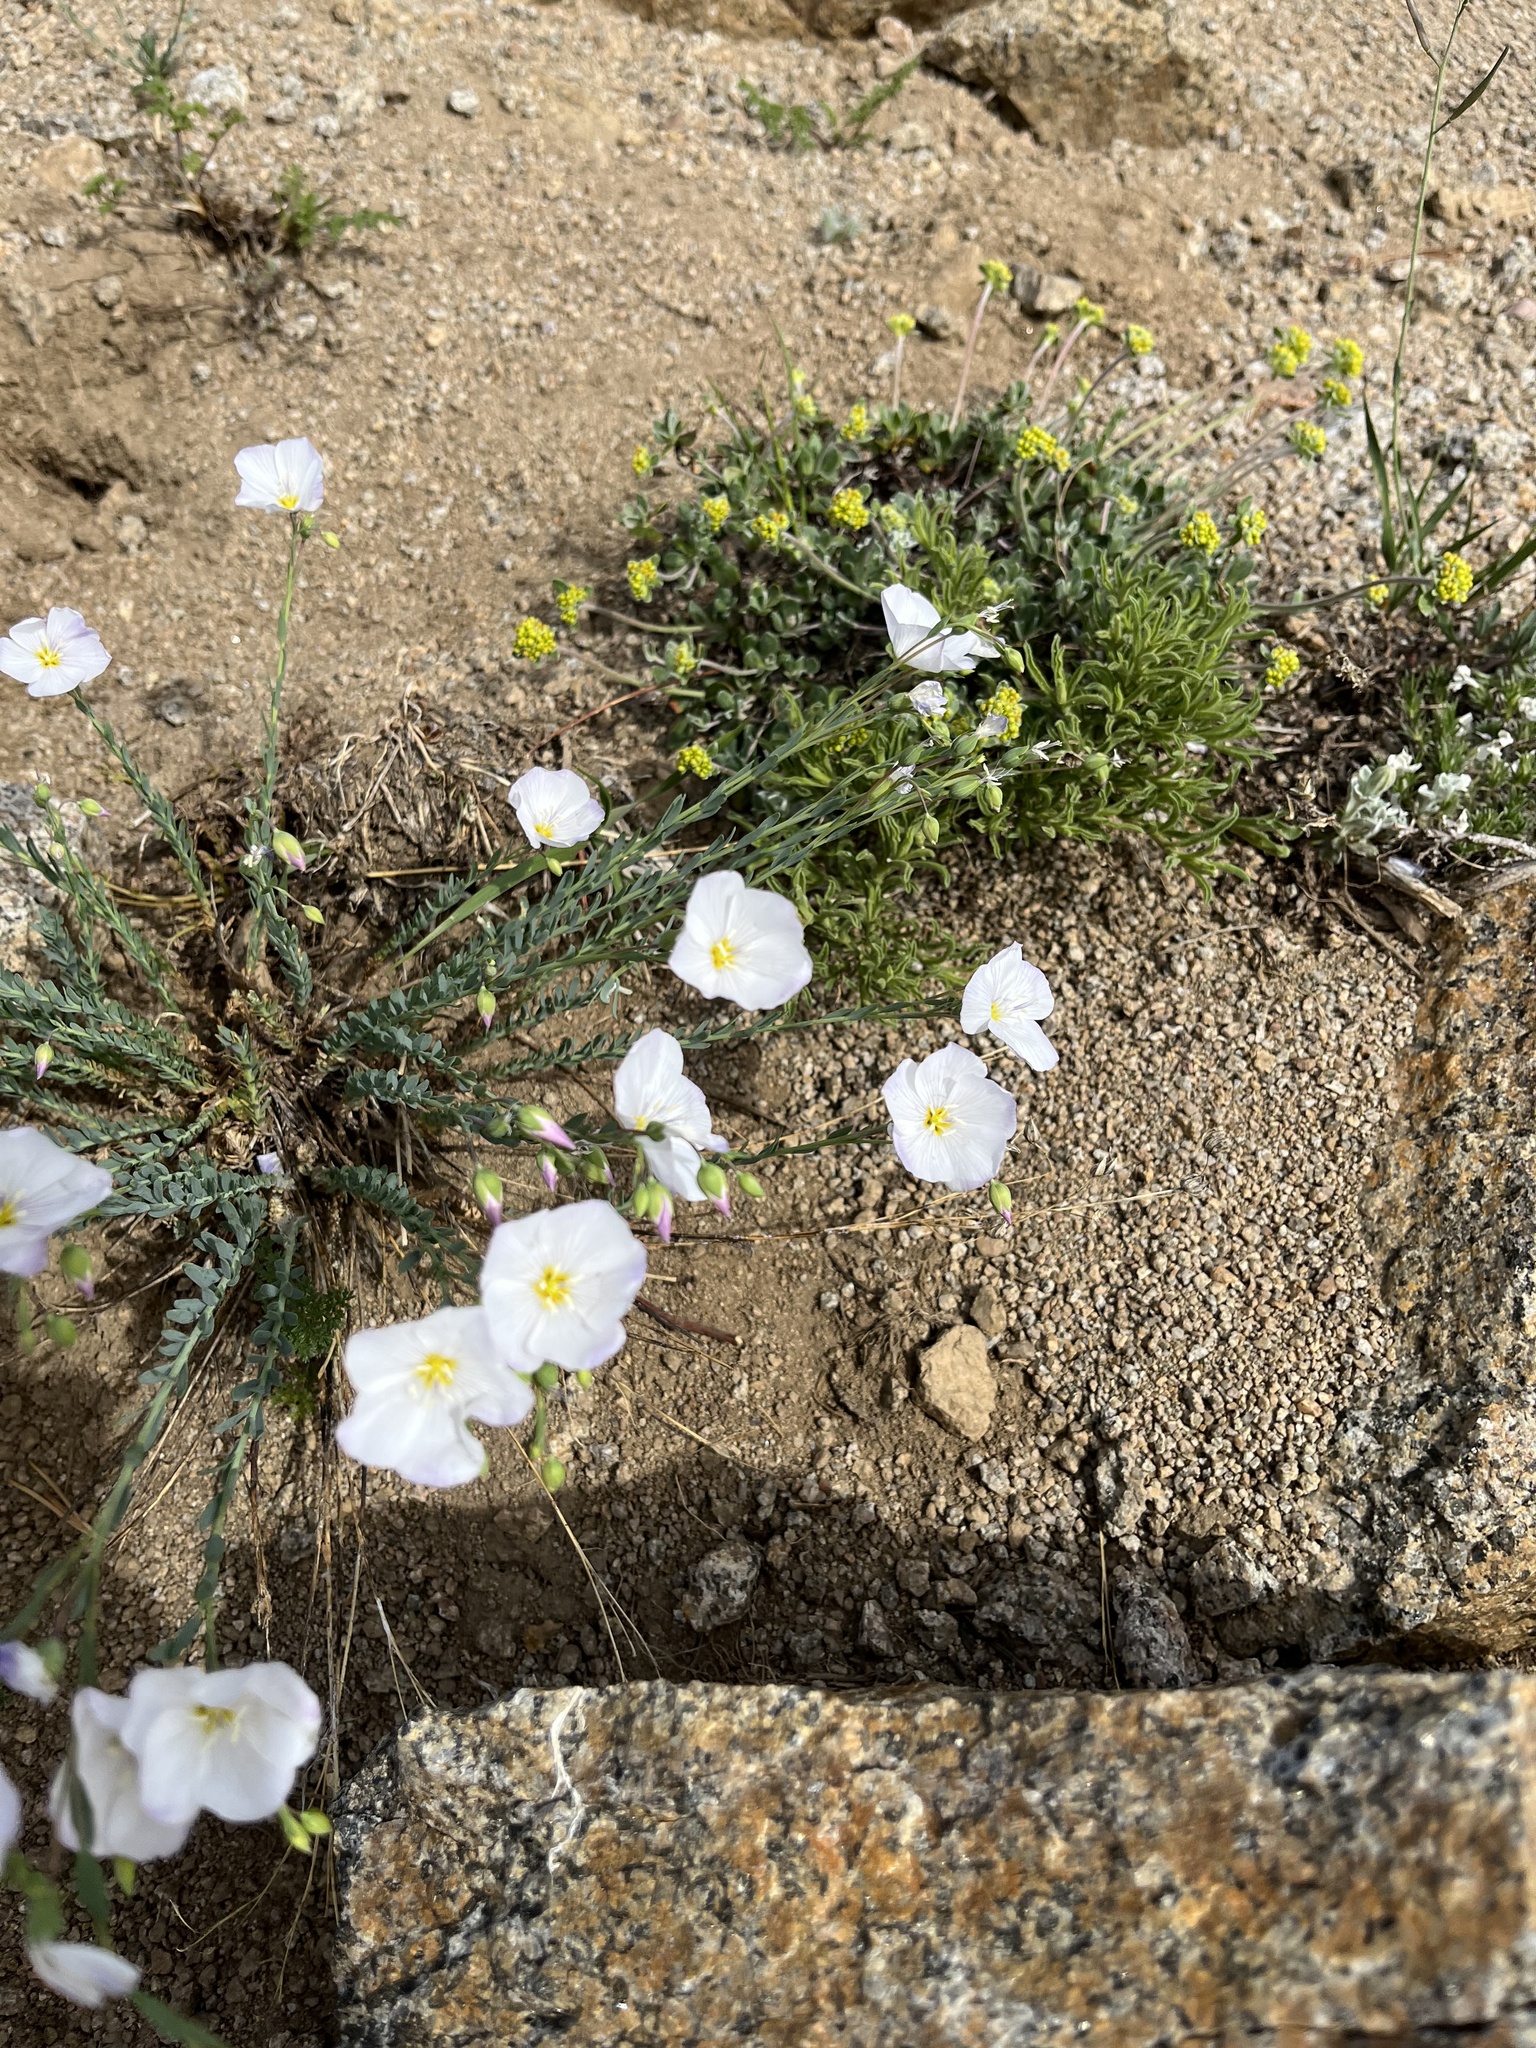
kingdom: Plantae
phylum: Tracheophyta
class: Magnoliopsida
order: Malpighiales
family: Linaceae
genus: Linum
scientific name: Linum lewisii
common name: Prairie flax
